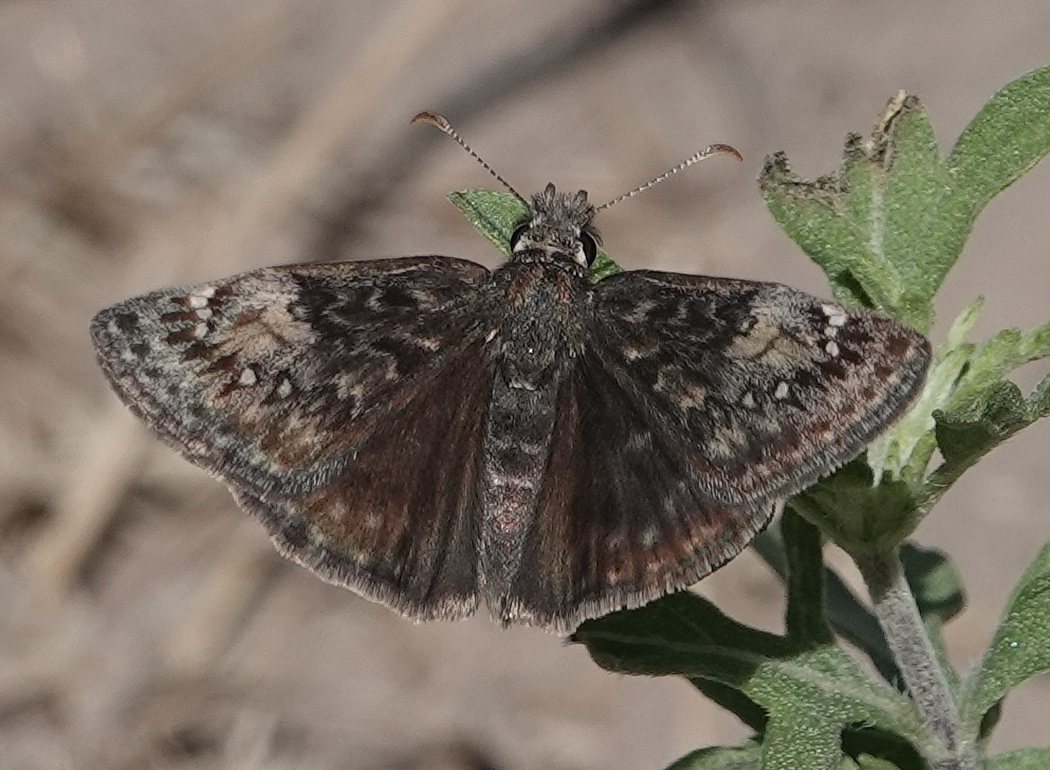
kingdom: Animalia
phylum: Arthropoda
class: Insecta
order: Lepidoptera
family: Hesperiidae
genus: Erynnis
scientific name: Erynnis afranius
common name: Afranius duskywing
